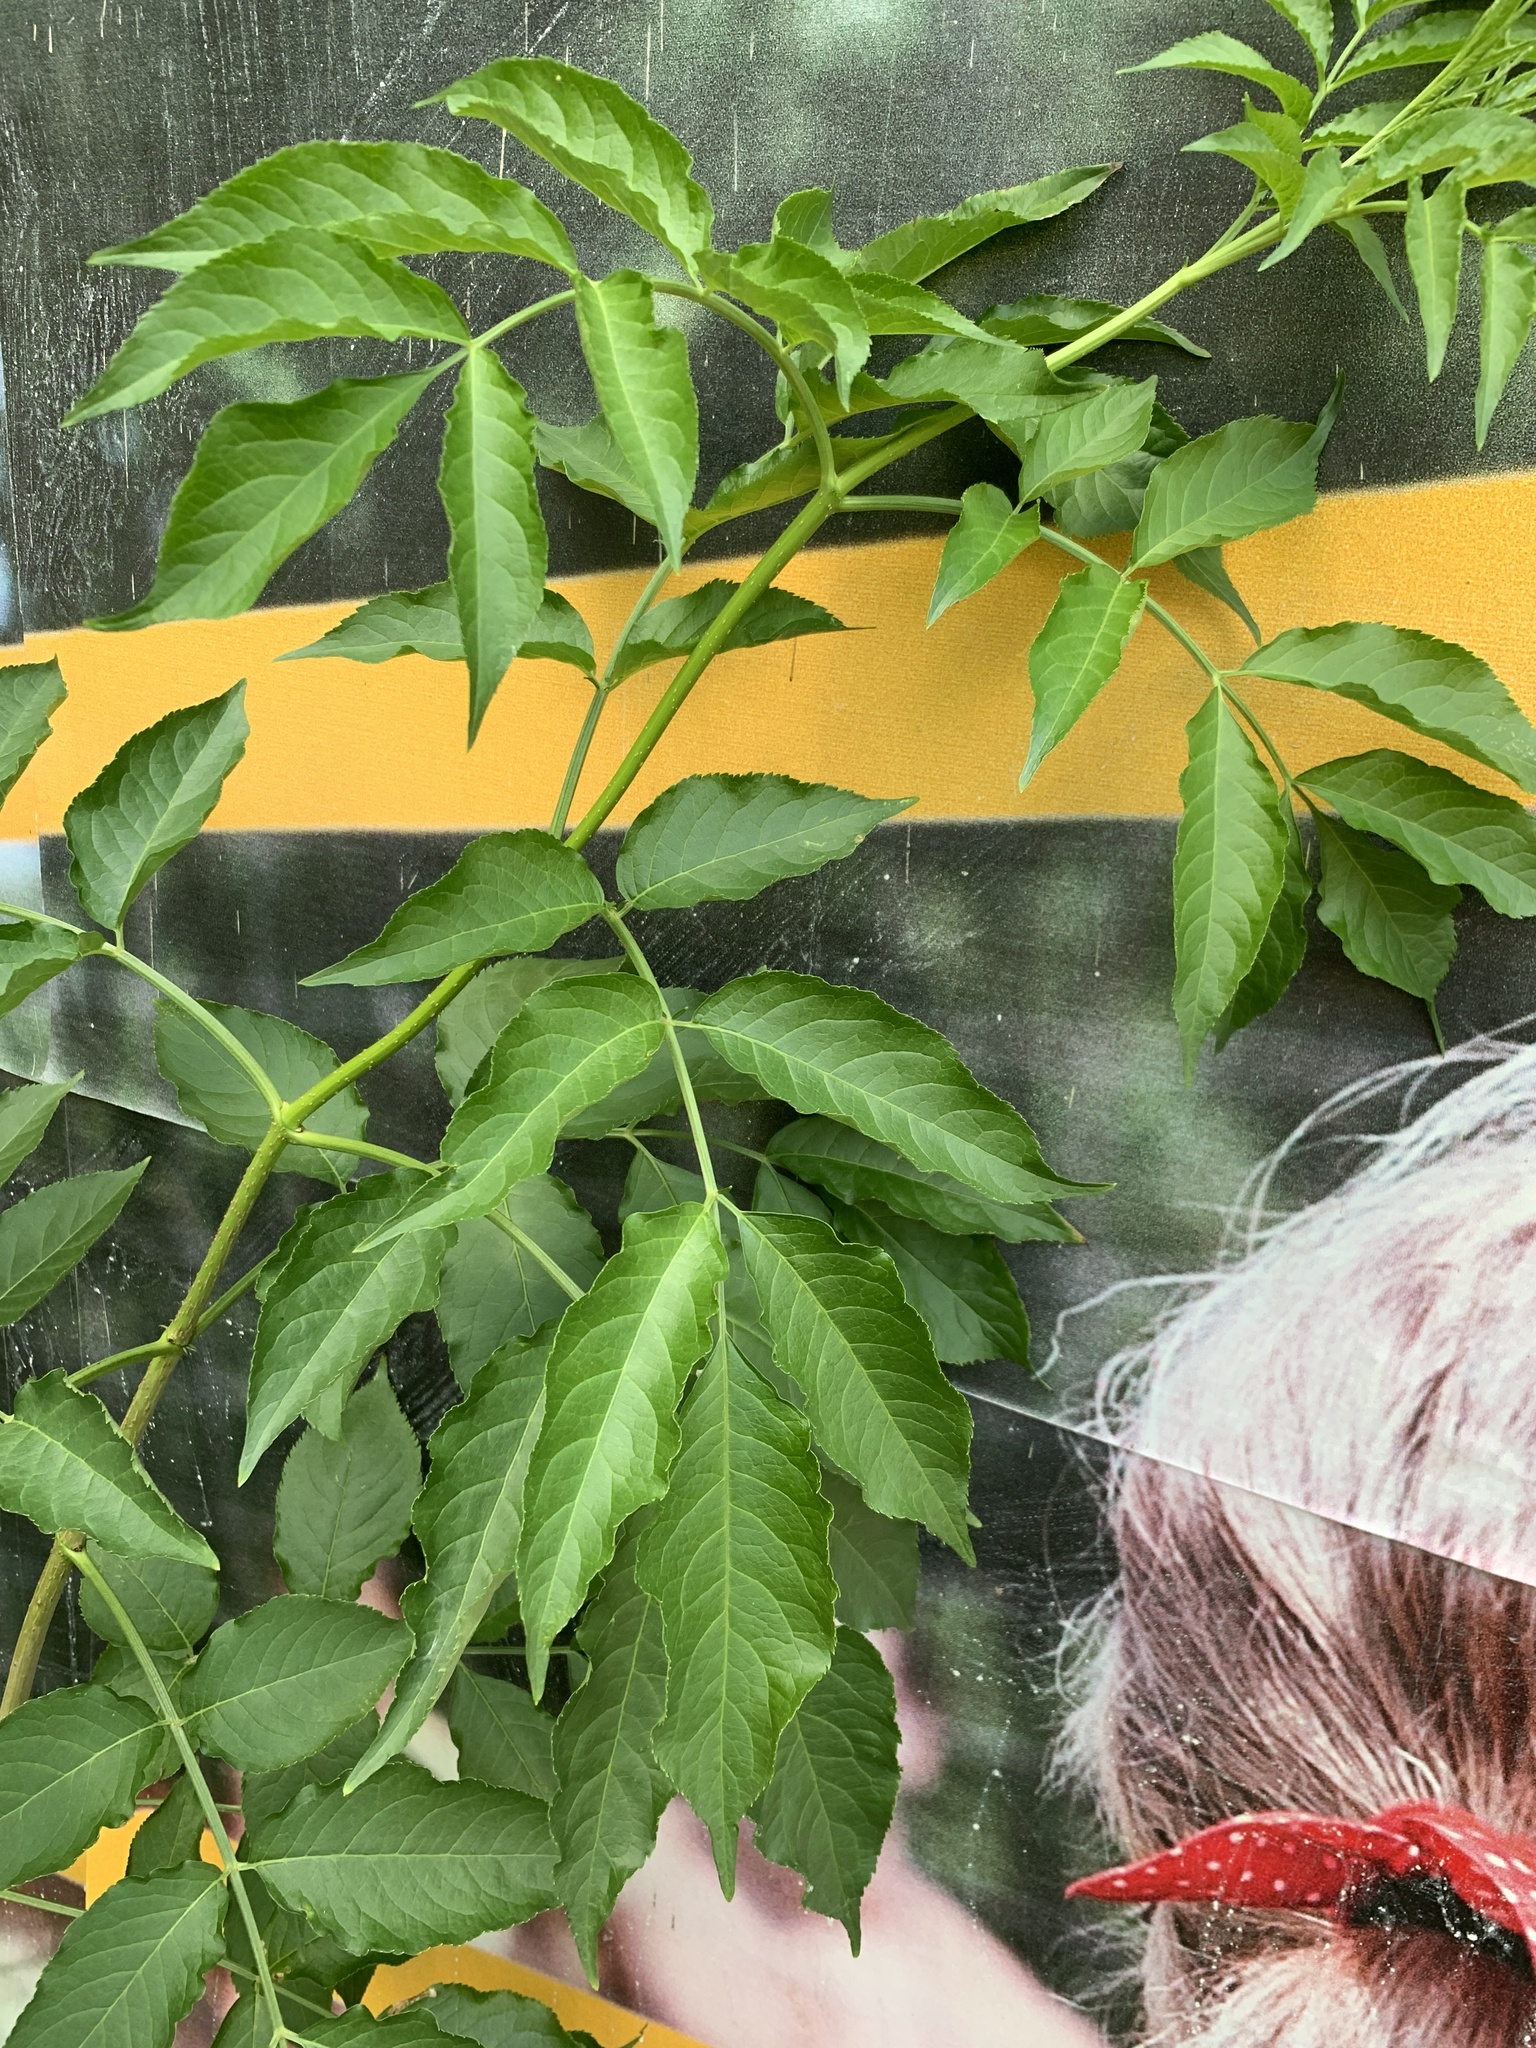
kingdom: Plantae
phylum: Tracheophyta
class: Magnoliopsida
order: Dipsacales
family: Viburnaceae
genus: Sambucus
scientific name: Sambucus nigra
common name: Elder
